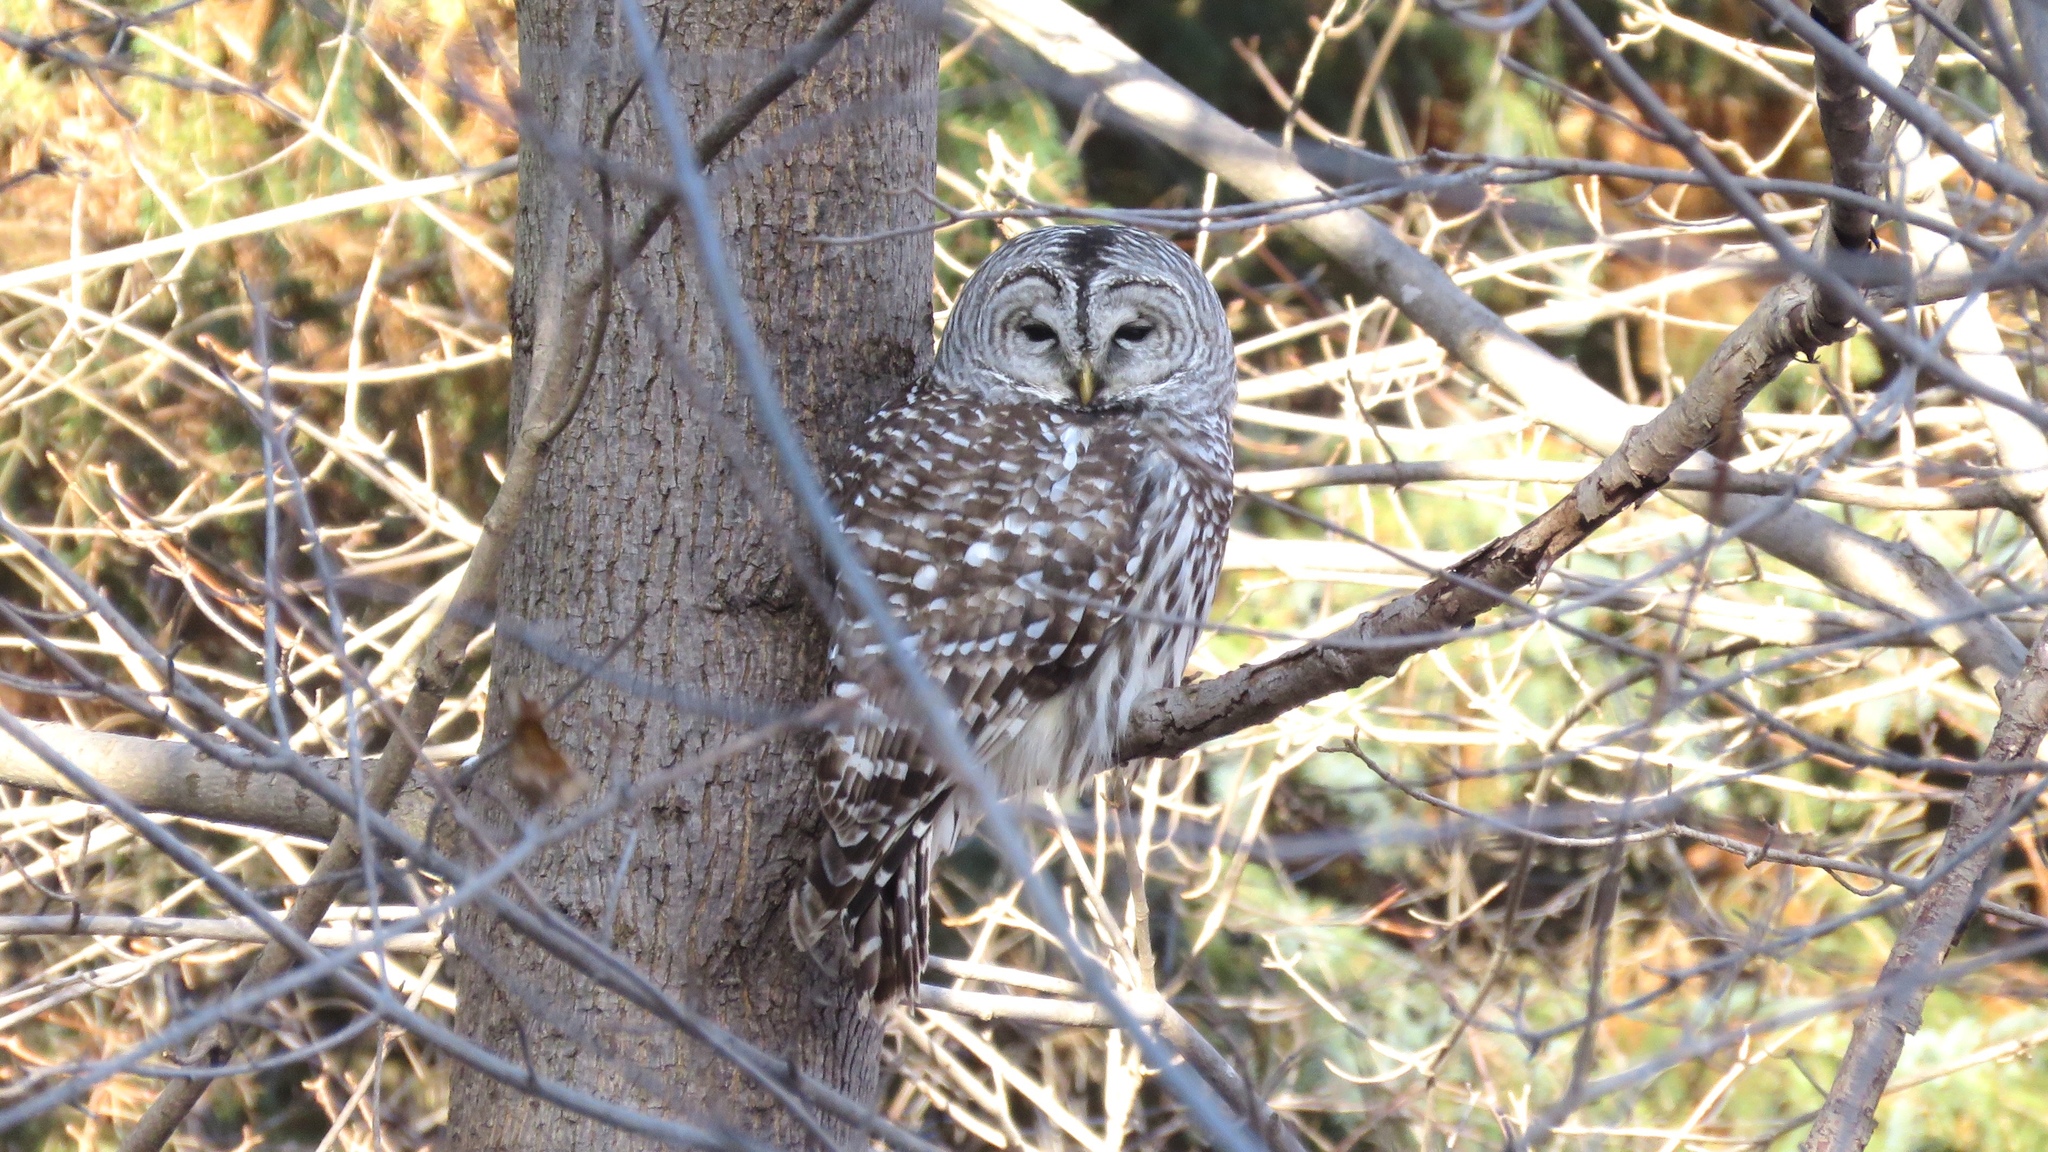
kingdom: Animalia
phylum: Chordata
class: Aves
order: Strigiformes
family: Strigidae
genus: Strix
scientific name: Strix varia
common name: Barred owl
